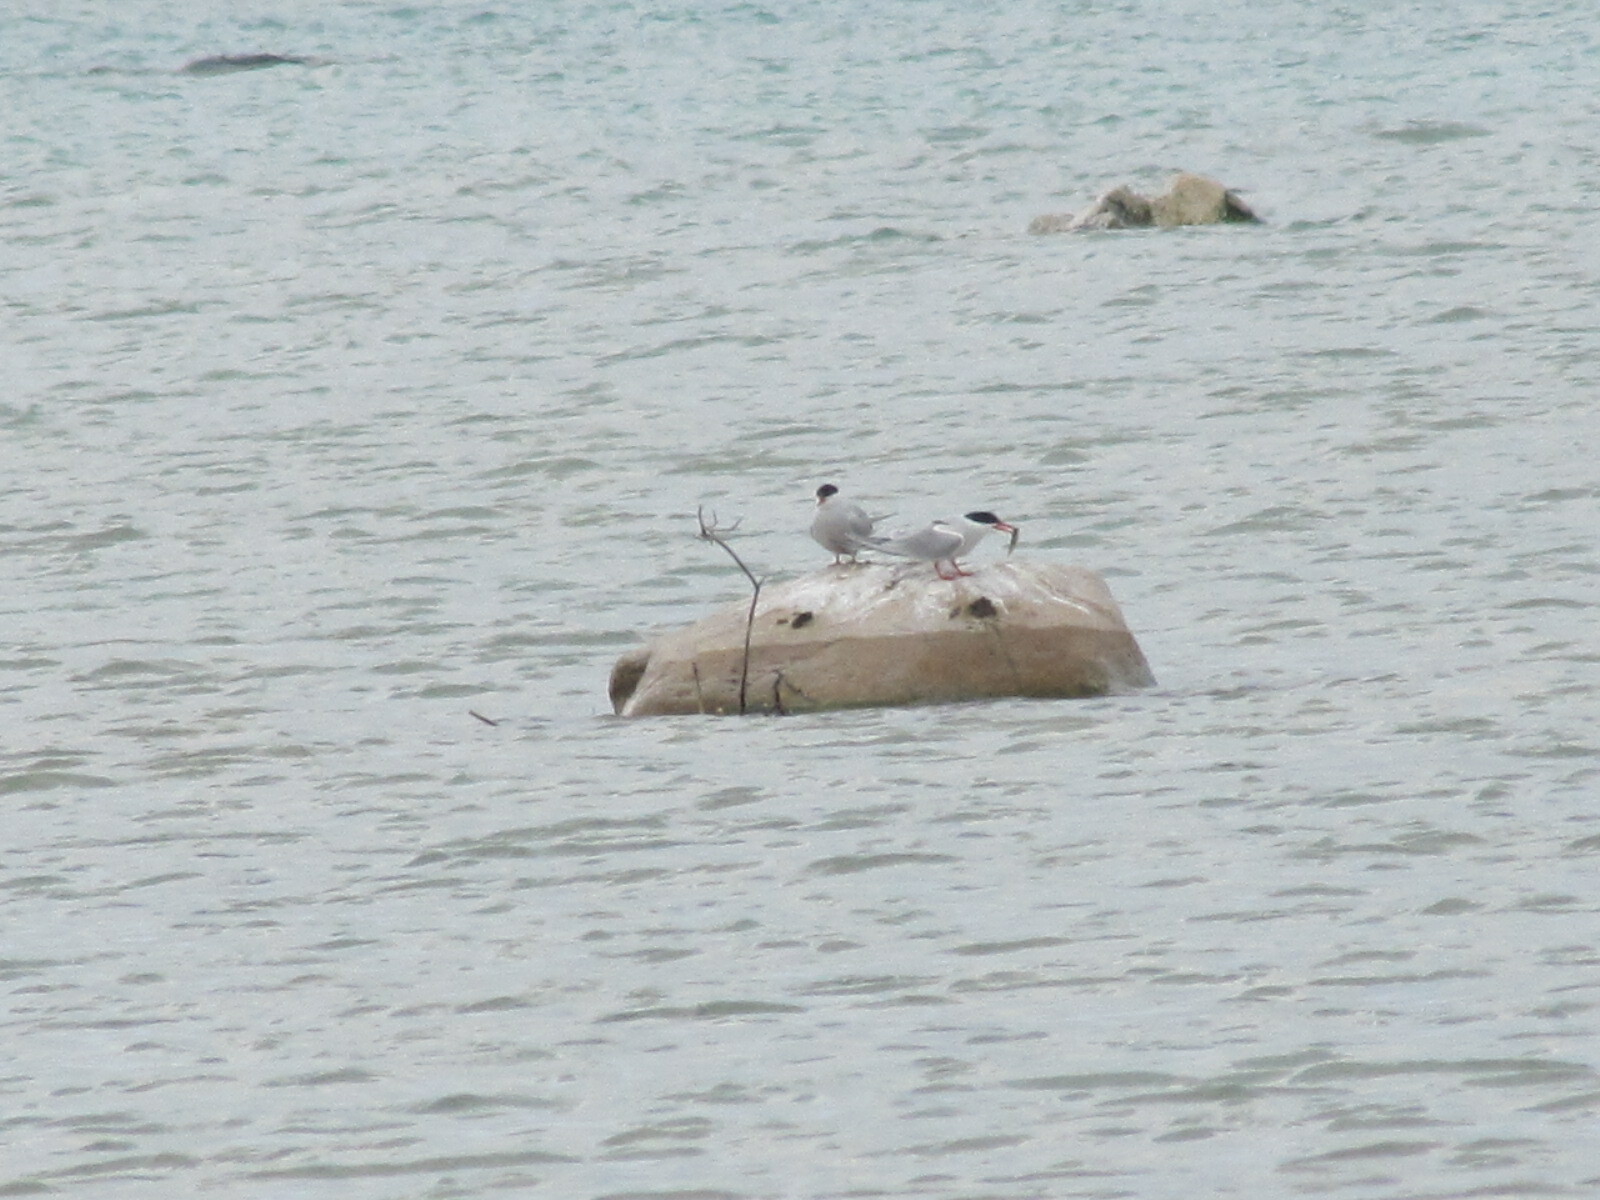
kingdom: Animalia
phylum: Chordata
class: Aves
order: Charadriiformes
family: Laridae
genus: Sterna
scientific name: Sterna hirundo
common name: Common tern
